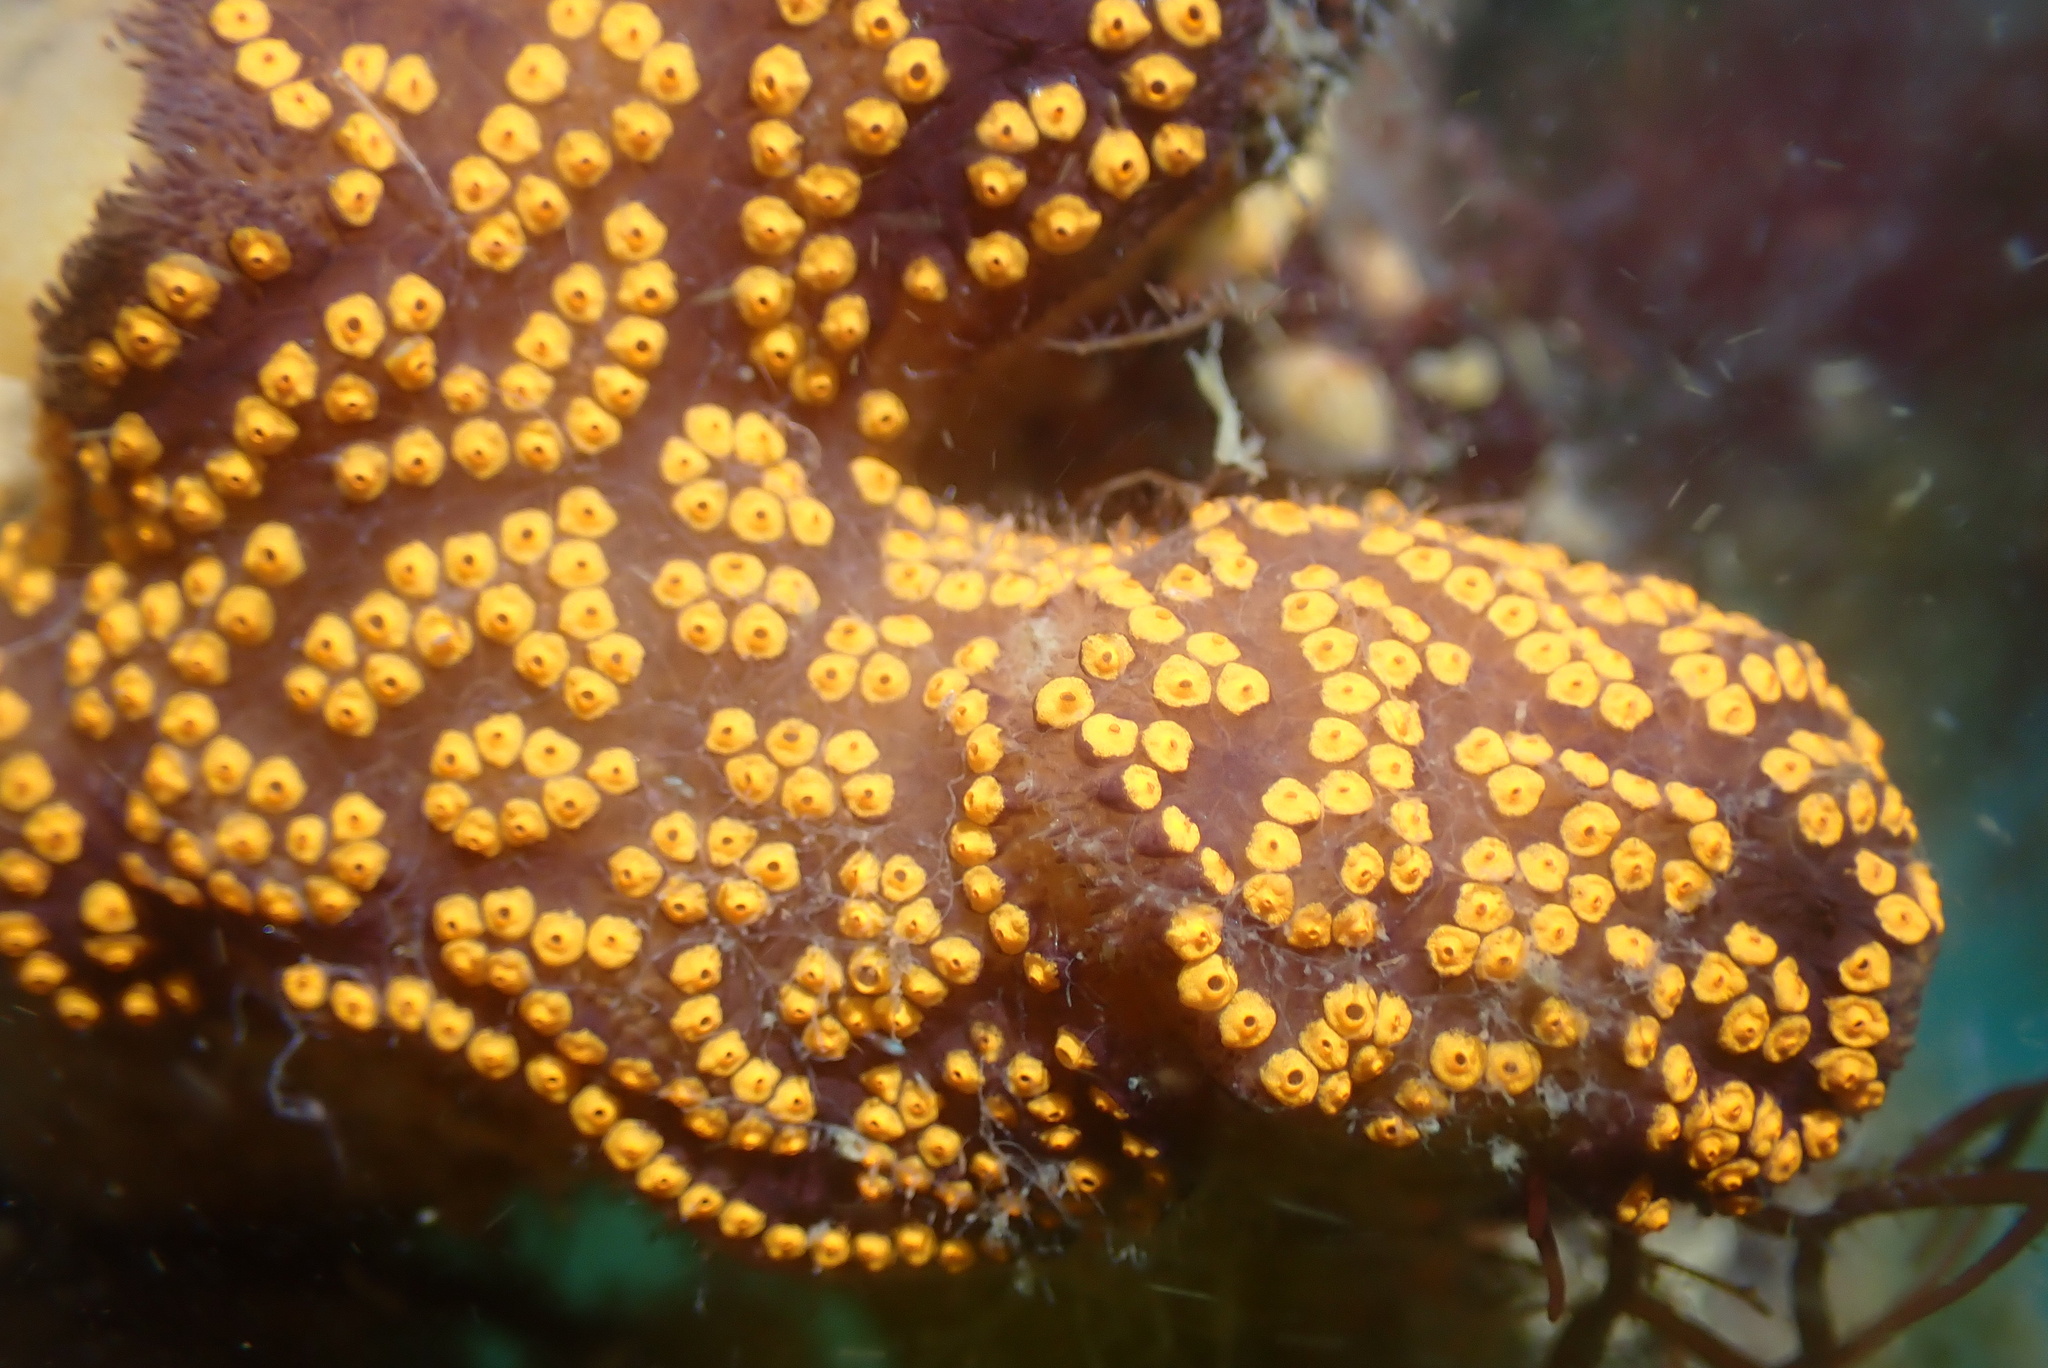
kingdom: Animalia
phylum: Chordata
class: Ascidiacea
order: Stolidobranchia
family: Styelidae
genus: Botrylloides
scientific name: Botrylloides diegensis
